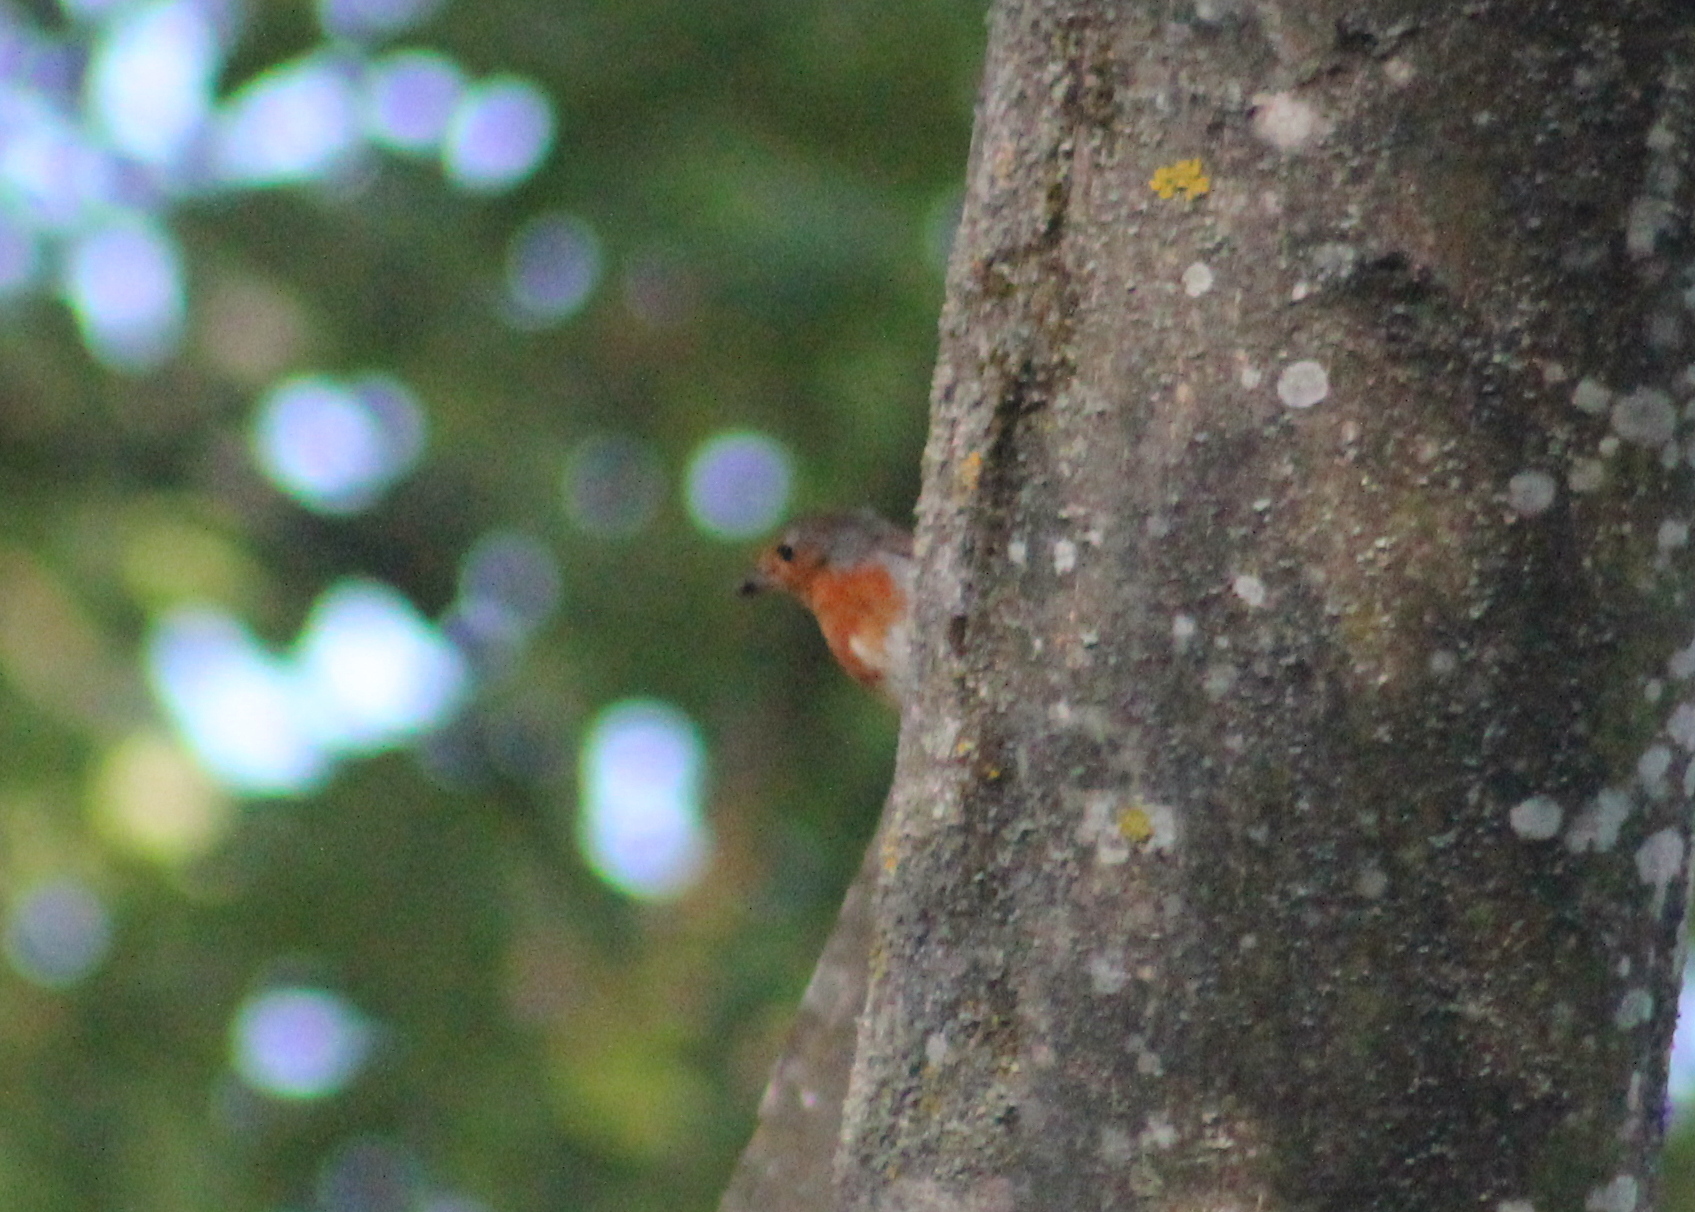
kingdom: Animalia
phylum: Chordata
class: Aves
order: Passeriformes
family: Muscicapidae
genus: Erithacus
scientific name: Erithacus rubecula
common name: European robin
